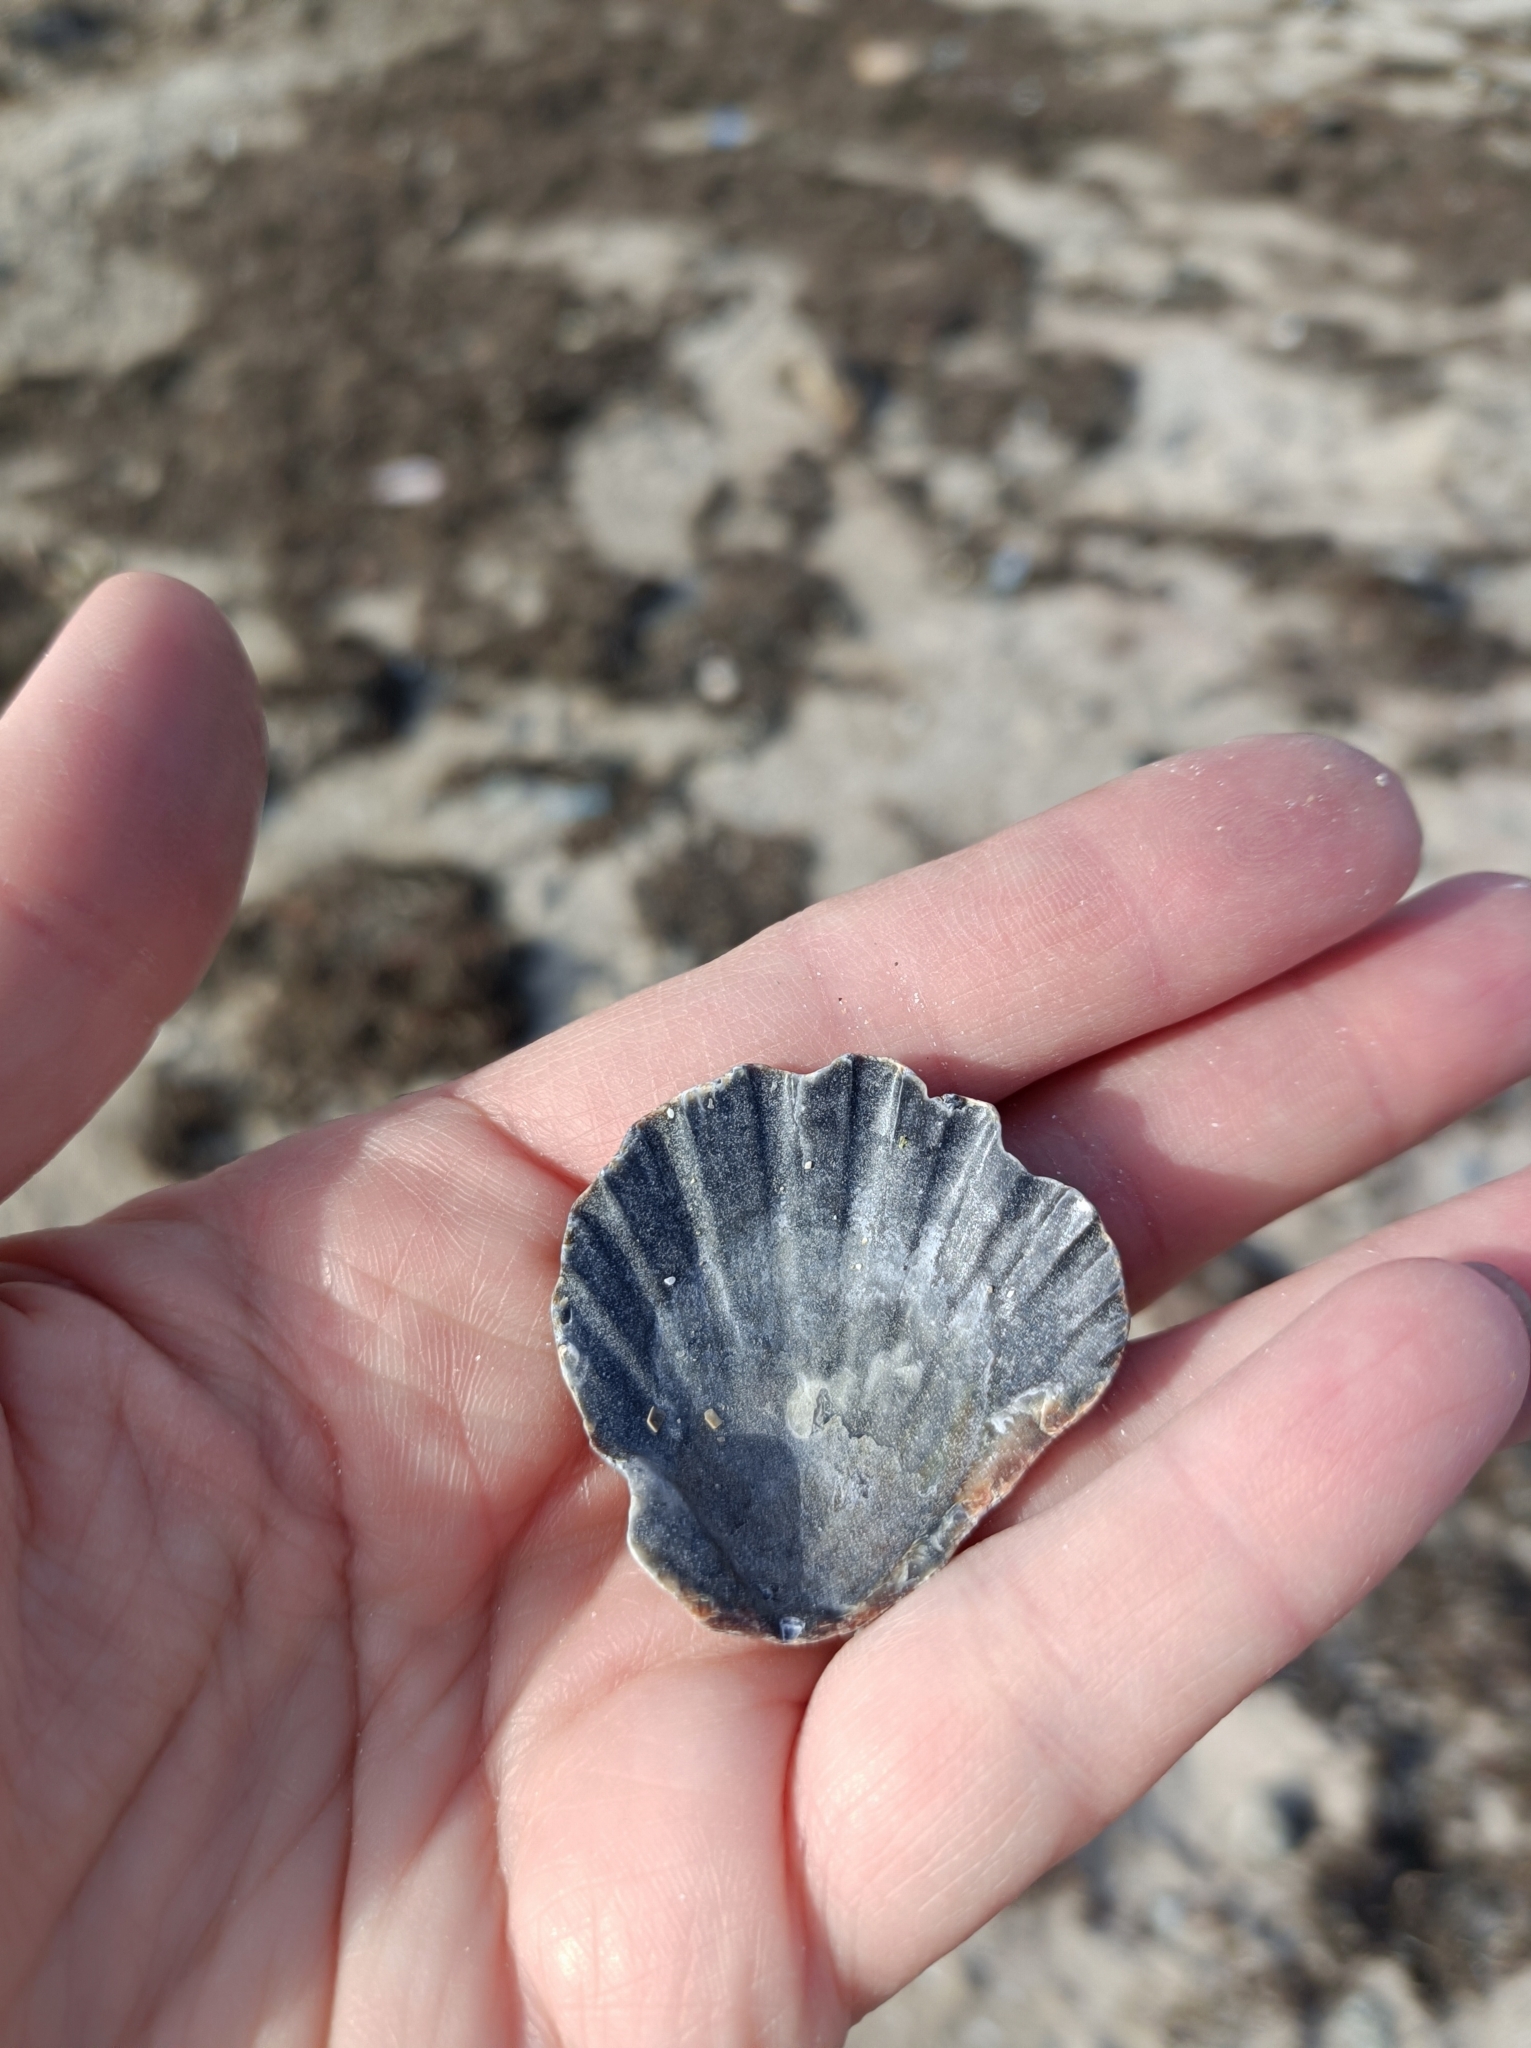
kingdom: Animalia
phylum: Mollusca
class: Bivalvia
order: Pectinida
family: Pectinidae
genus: Flexopecten
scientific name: Flexopecten glaber
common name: Smooth scallop
